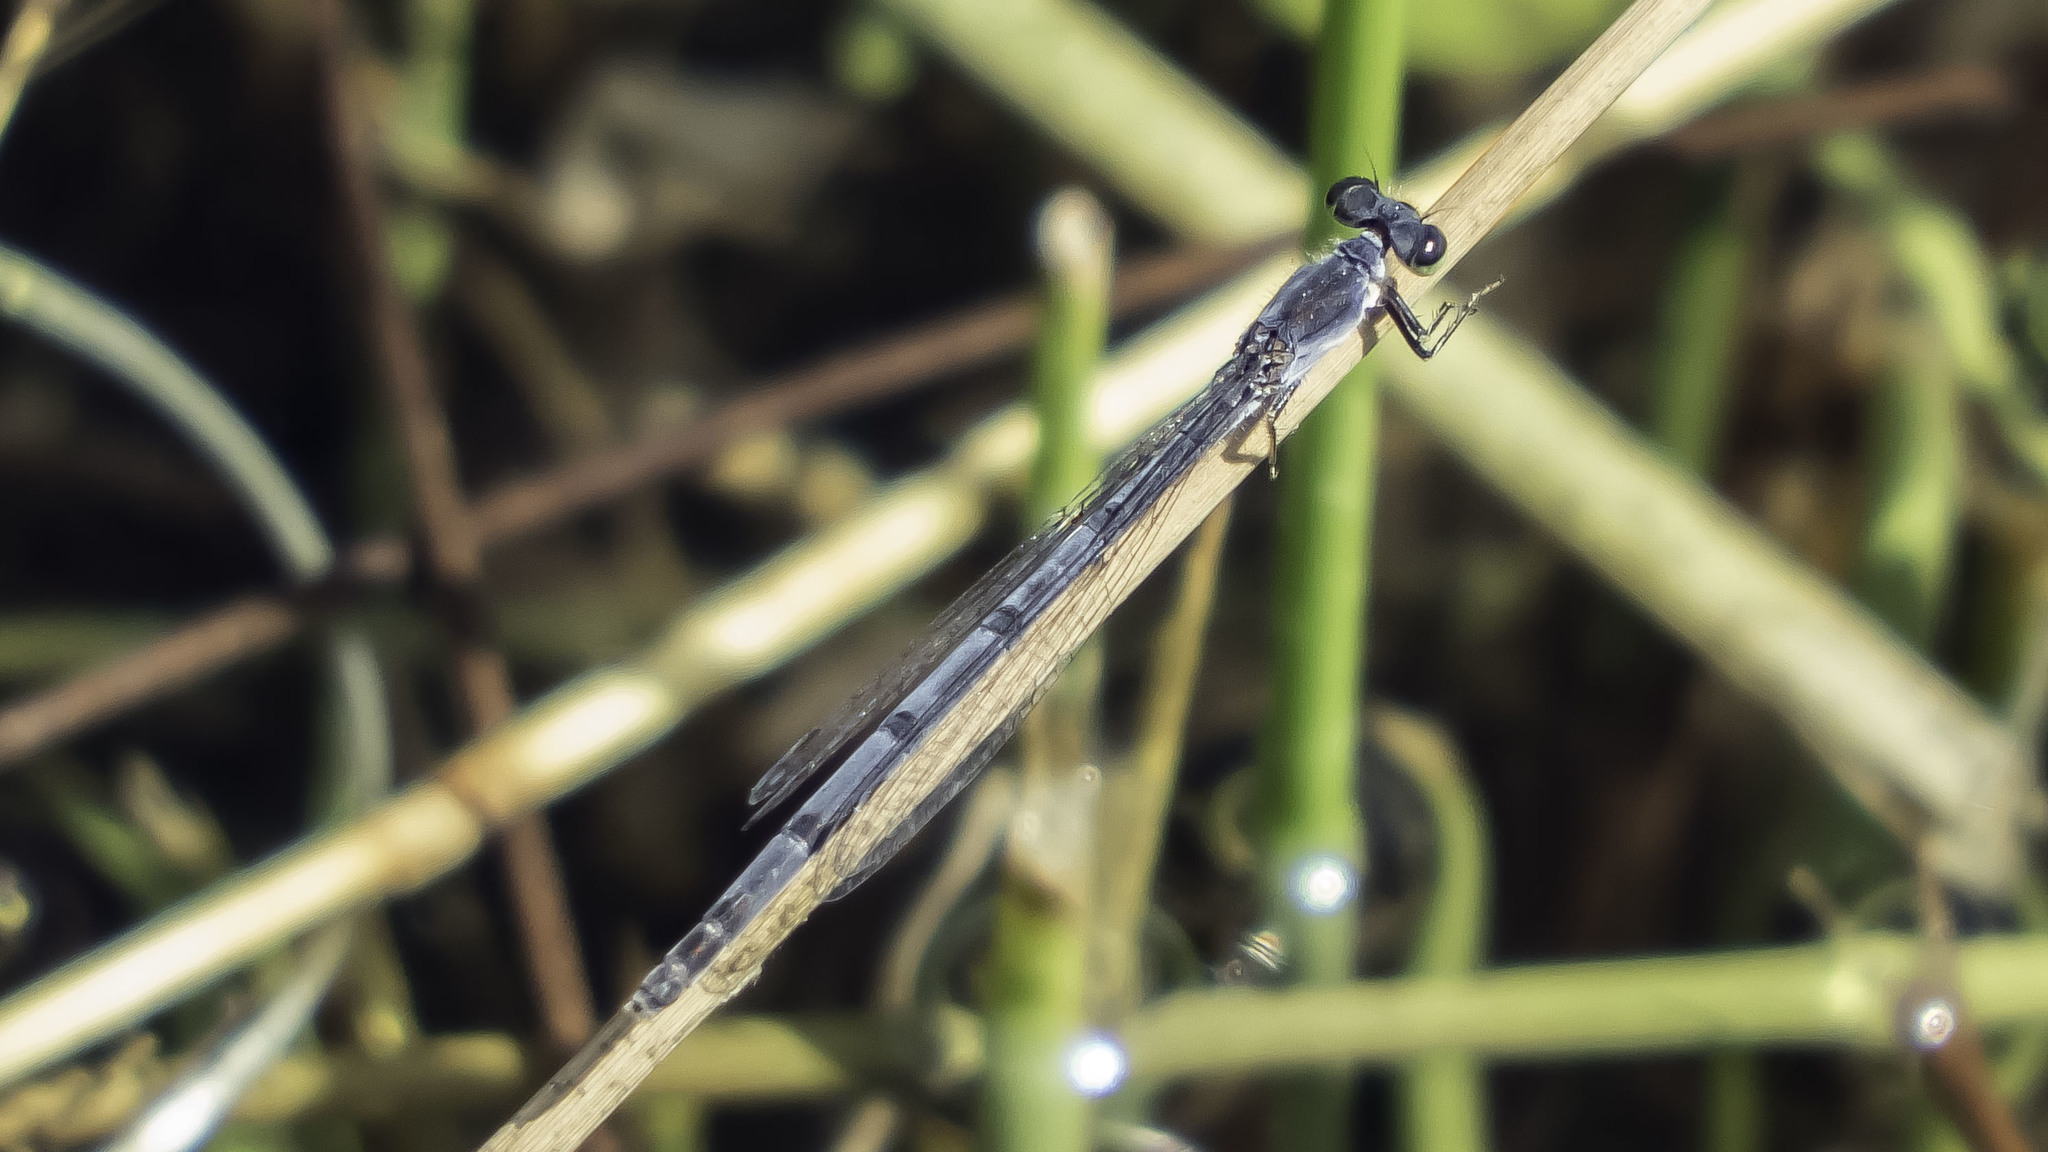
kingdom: Animalia
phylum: Arthropoda
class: Insecta
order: Odonata
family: Coenagrionidae
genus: Ischnura
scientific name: Ischnura posita
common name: Fragile forktail
